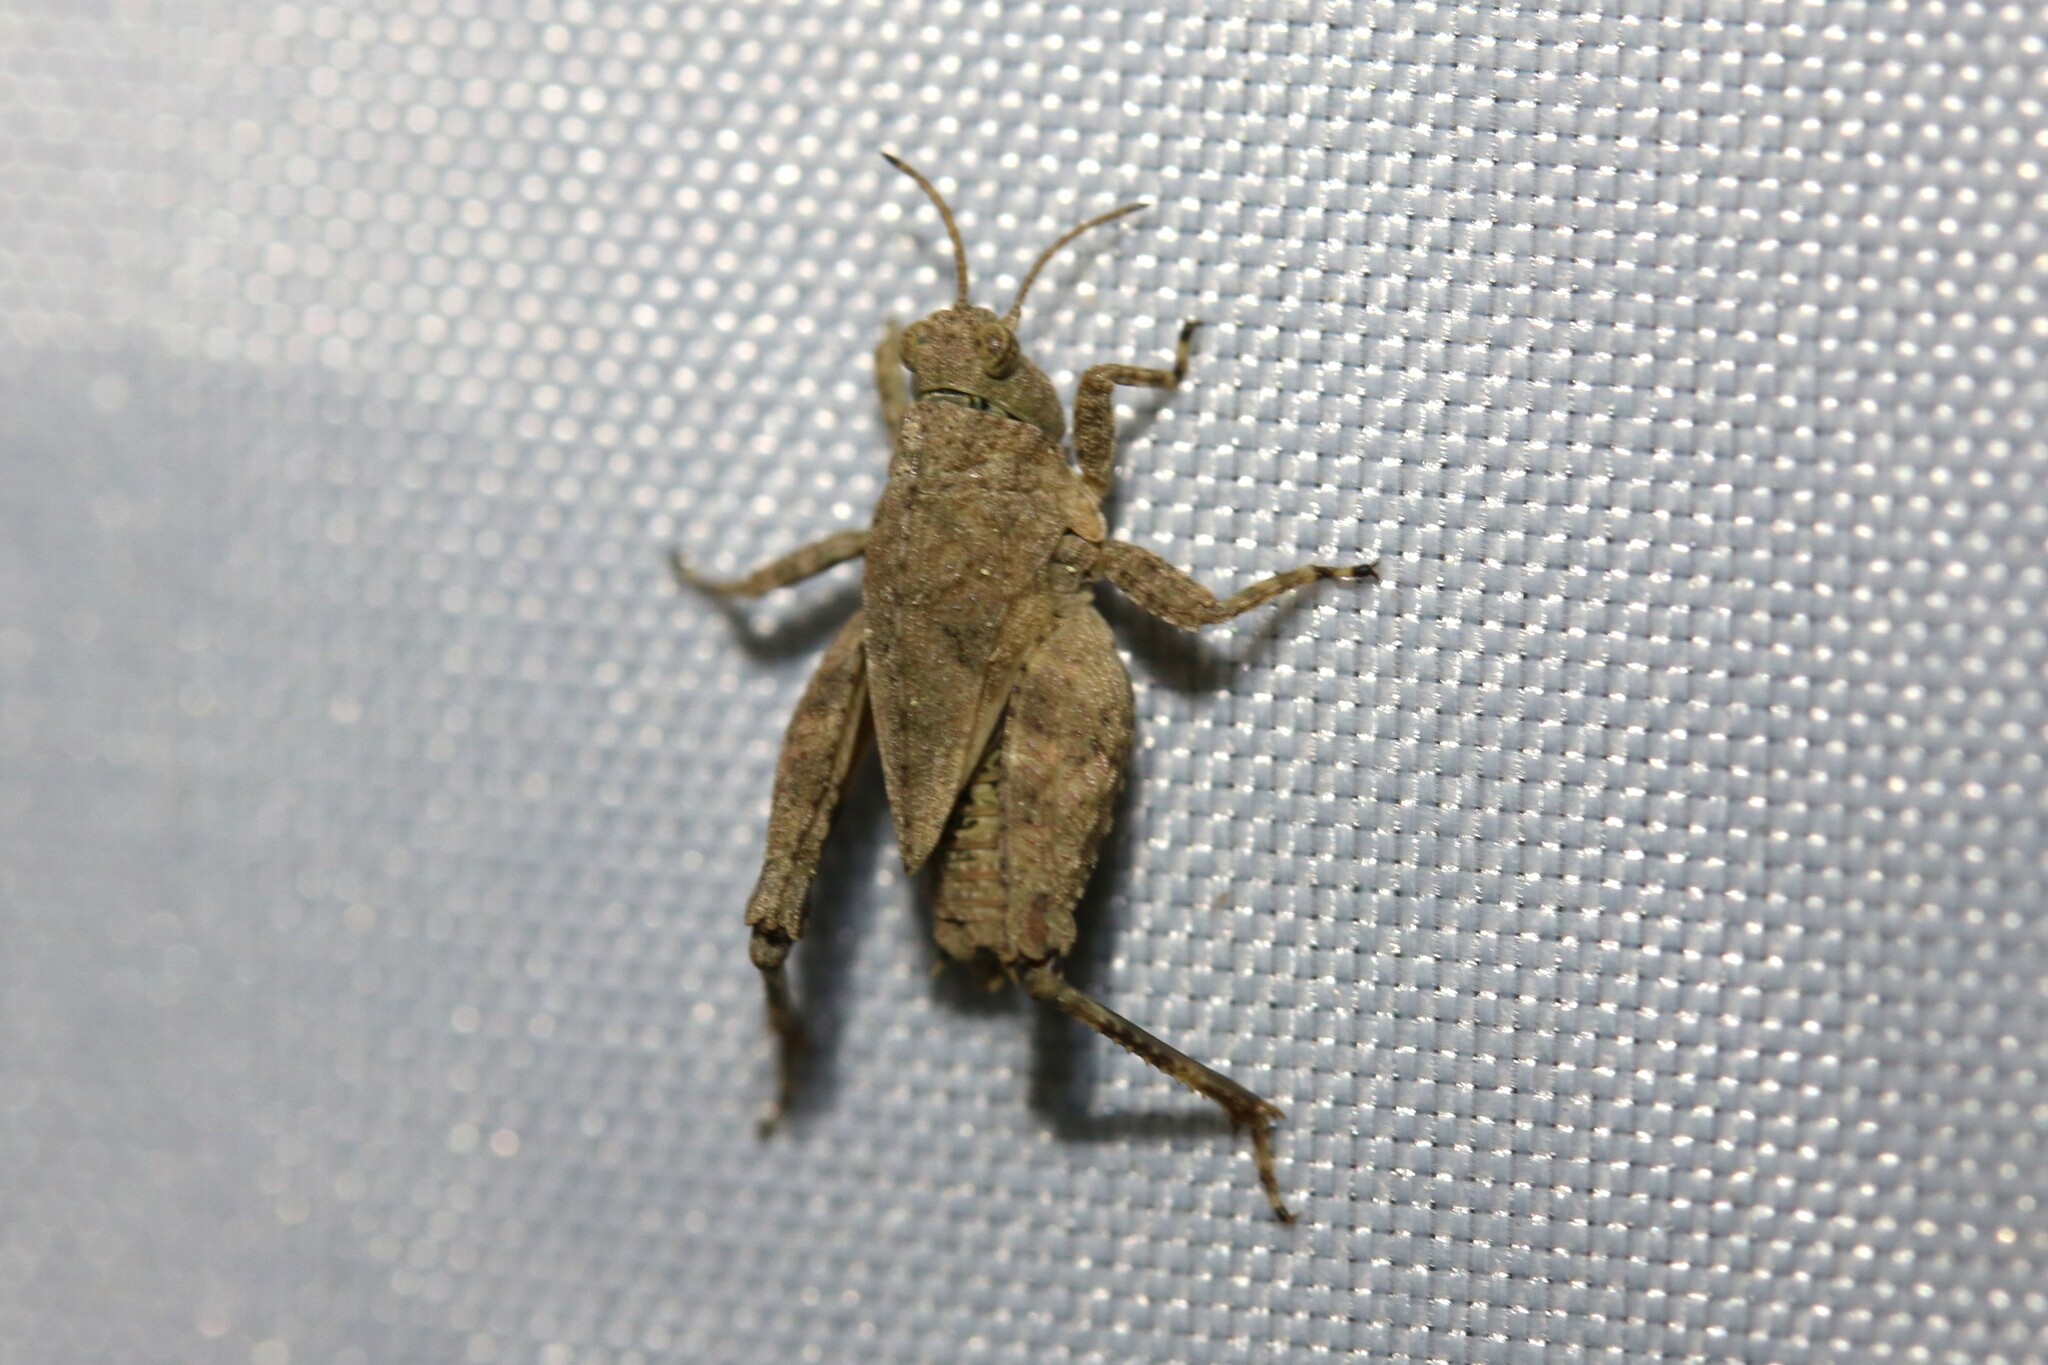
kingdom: Animalia
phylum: Arthropoda
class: Insecta
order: Orthoptera
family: Tetrigidae
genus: Tetrix
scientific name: Tetrix
